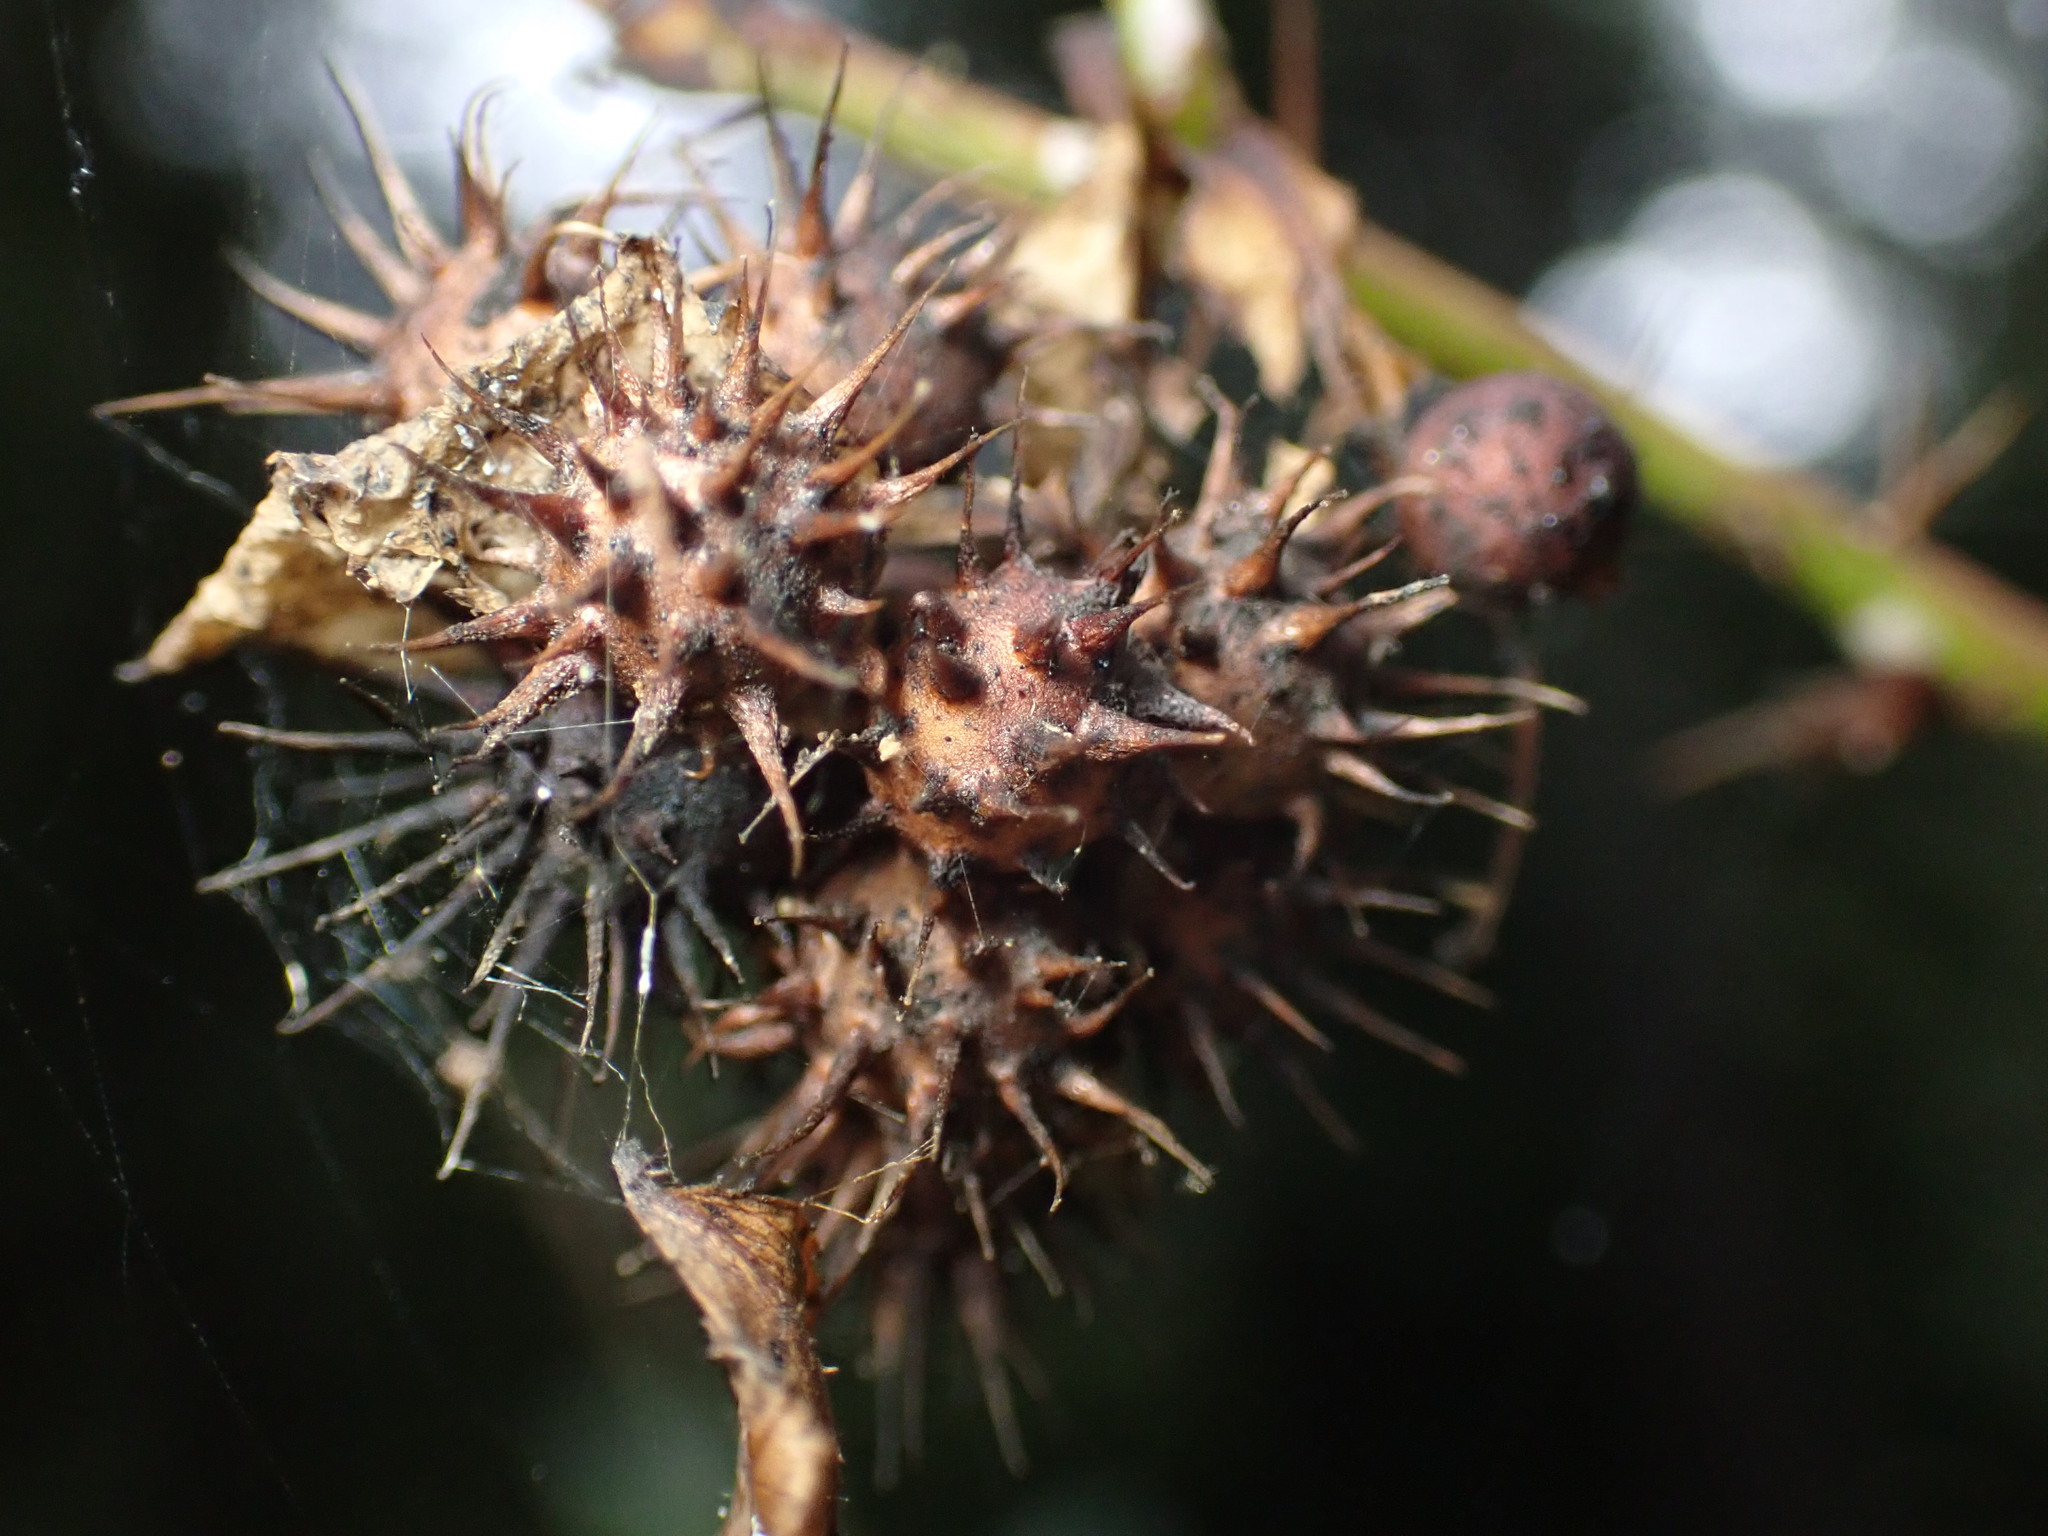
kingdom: Animalia
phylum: Arthropoda
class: Insecta
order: Hymenoptera
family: Cynipidae
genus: Diplolepis
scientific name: Diplolepis bicolor
